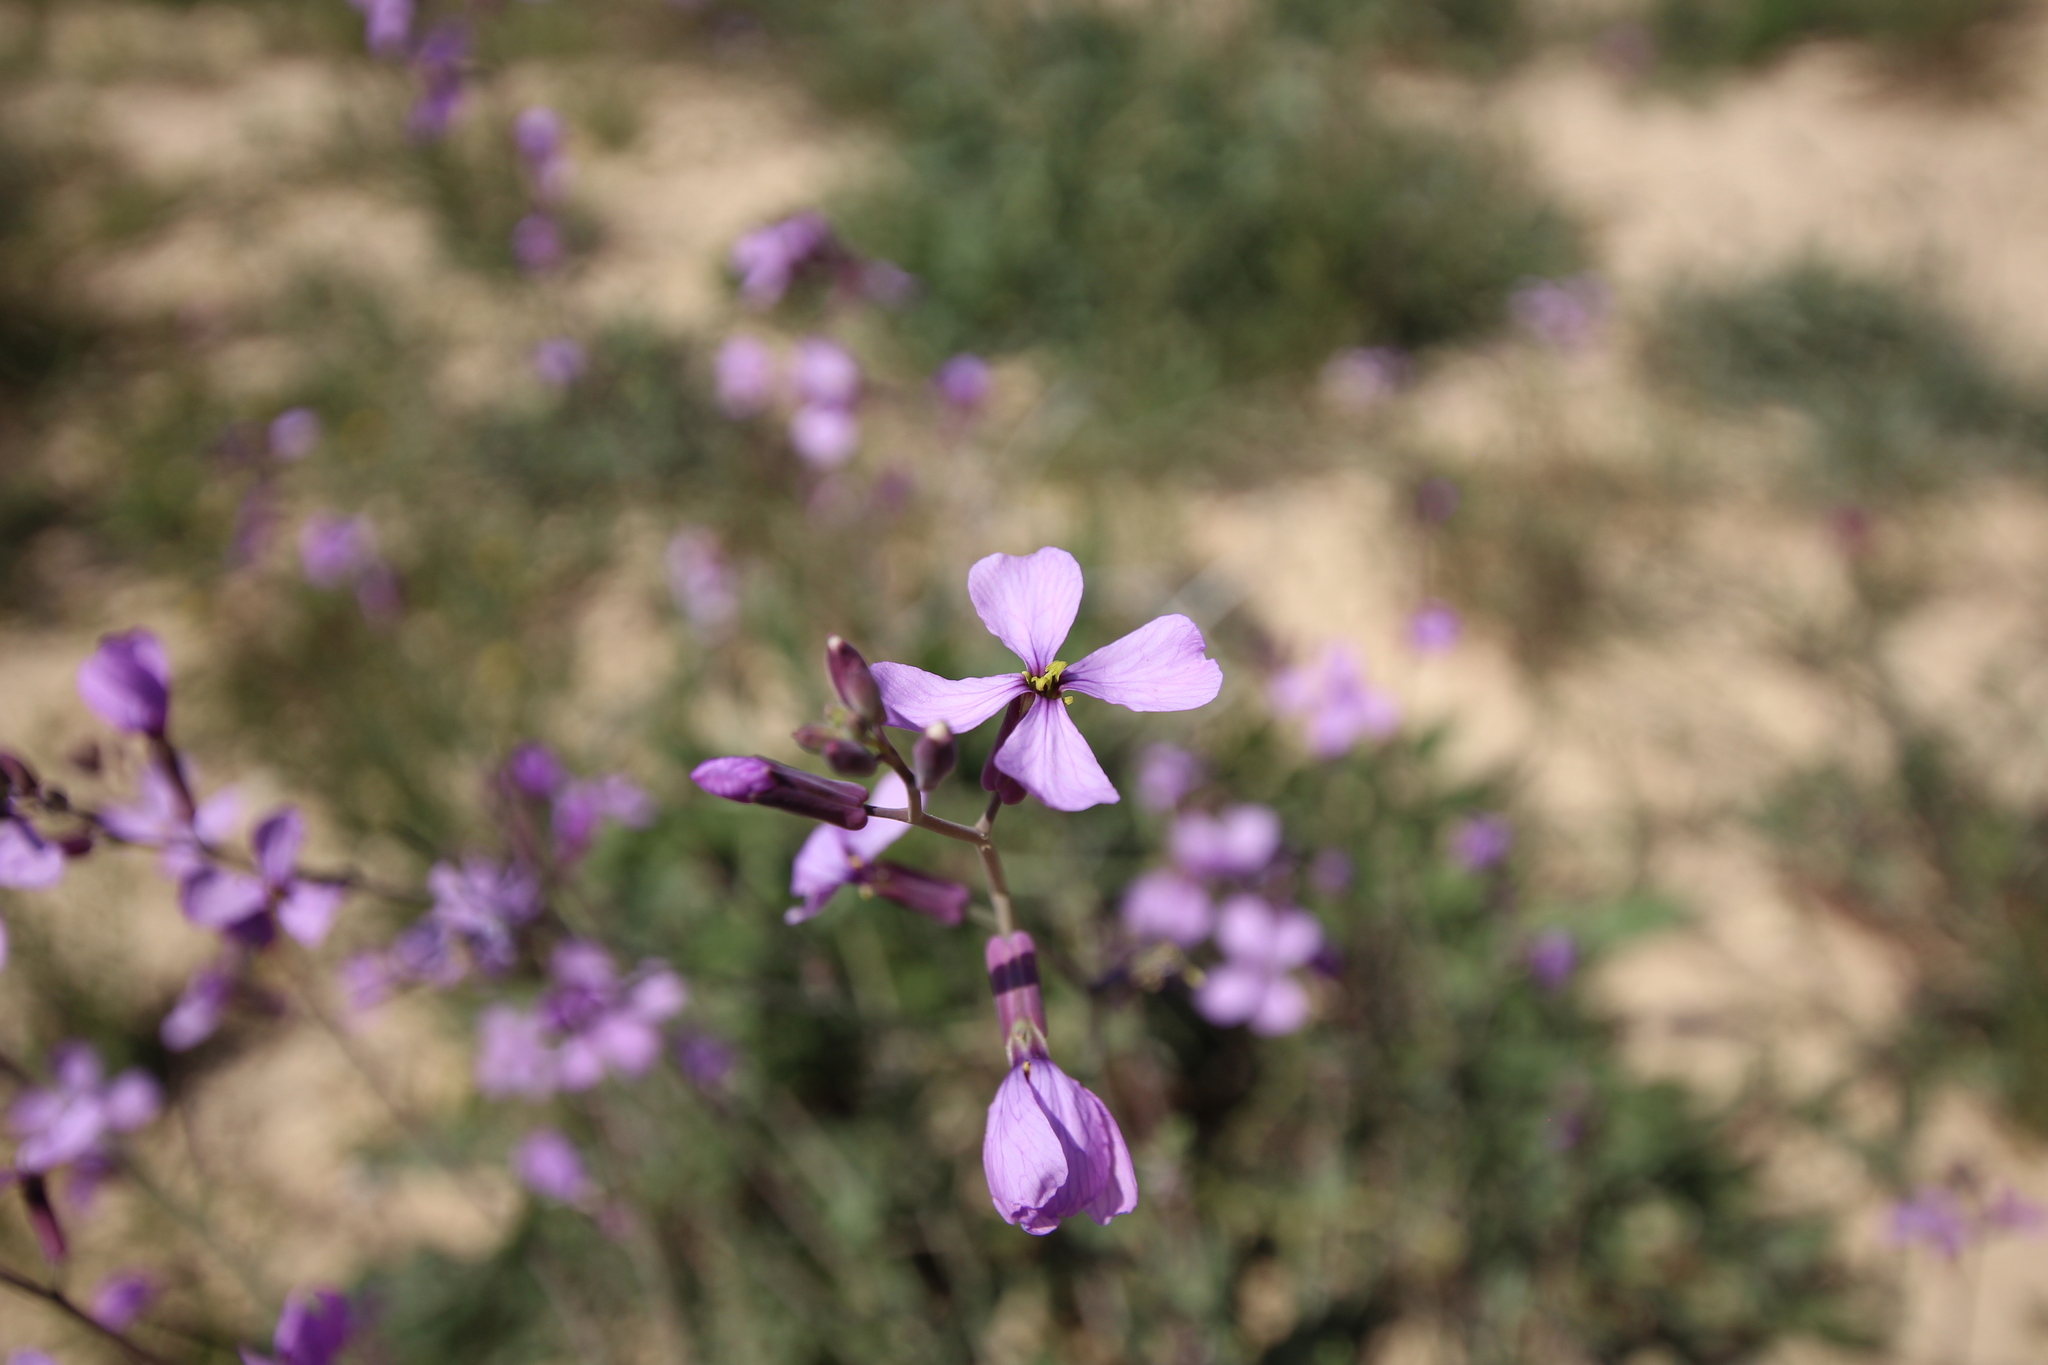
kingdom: Plantae
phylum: Tracheophyta
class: Magnoliopsida
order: Brassicales
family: Brassicaceae
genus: Moricandia
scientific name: Moricandia arvensis
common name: Purple mistress
